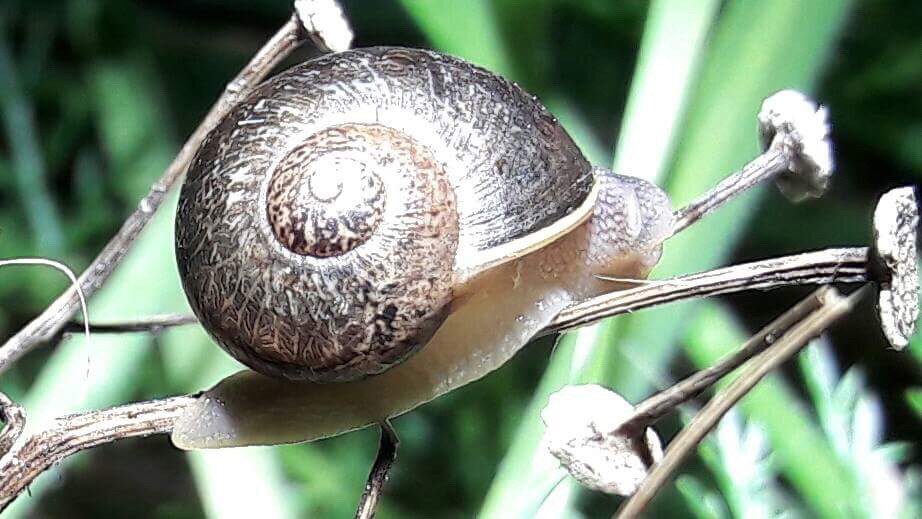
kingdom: Animalia
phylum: Mollusca
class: Gastropoda
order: Stylommatophora
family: Helicidae
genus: Cornu
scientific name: Cornu aspersum
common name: Brown garden snail
